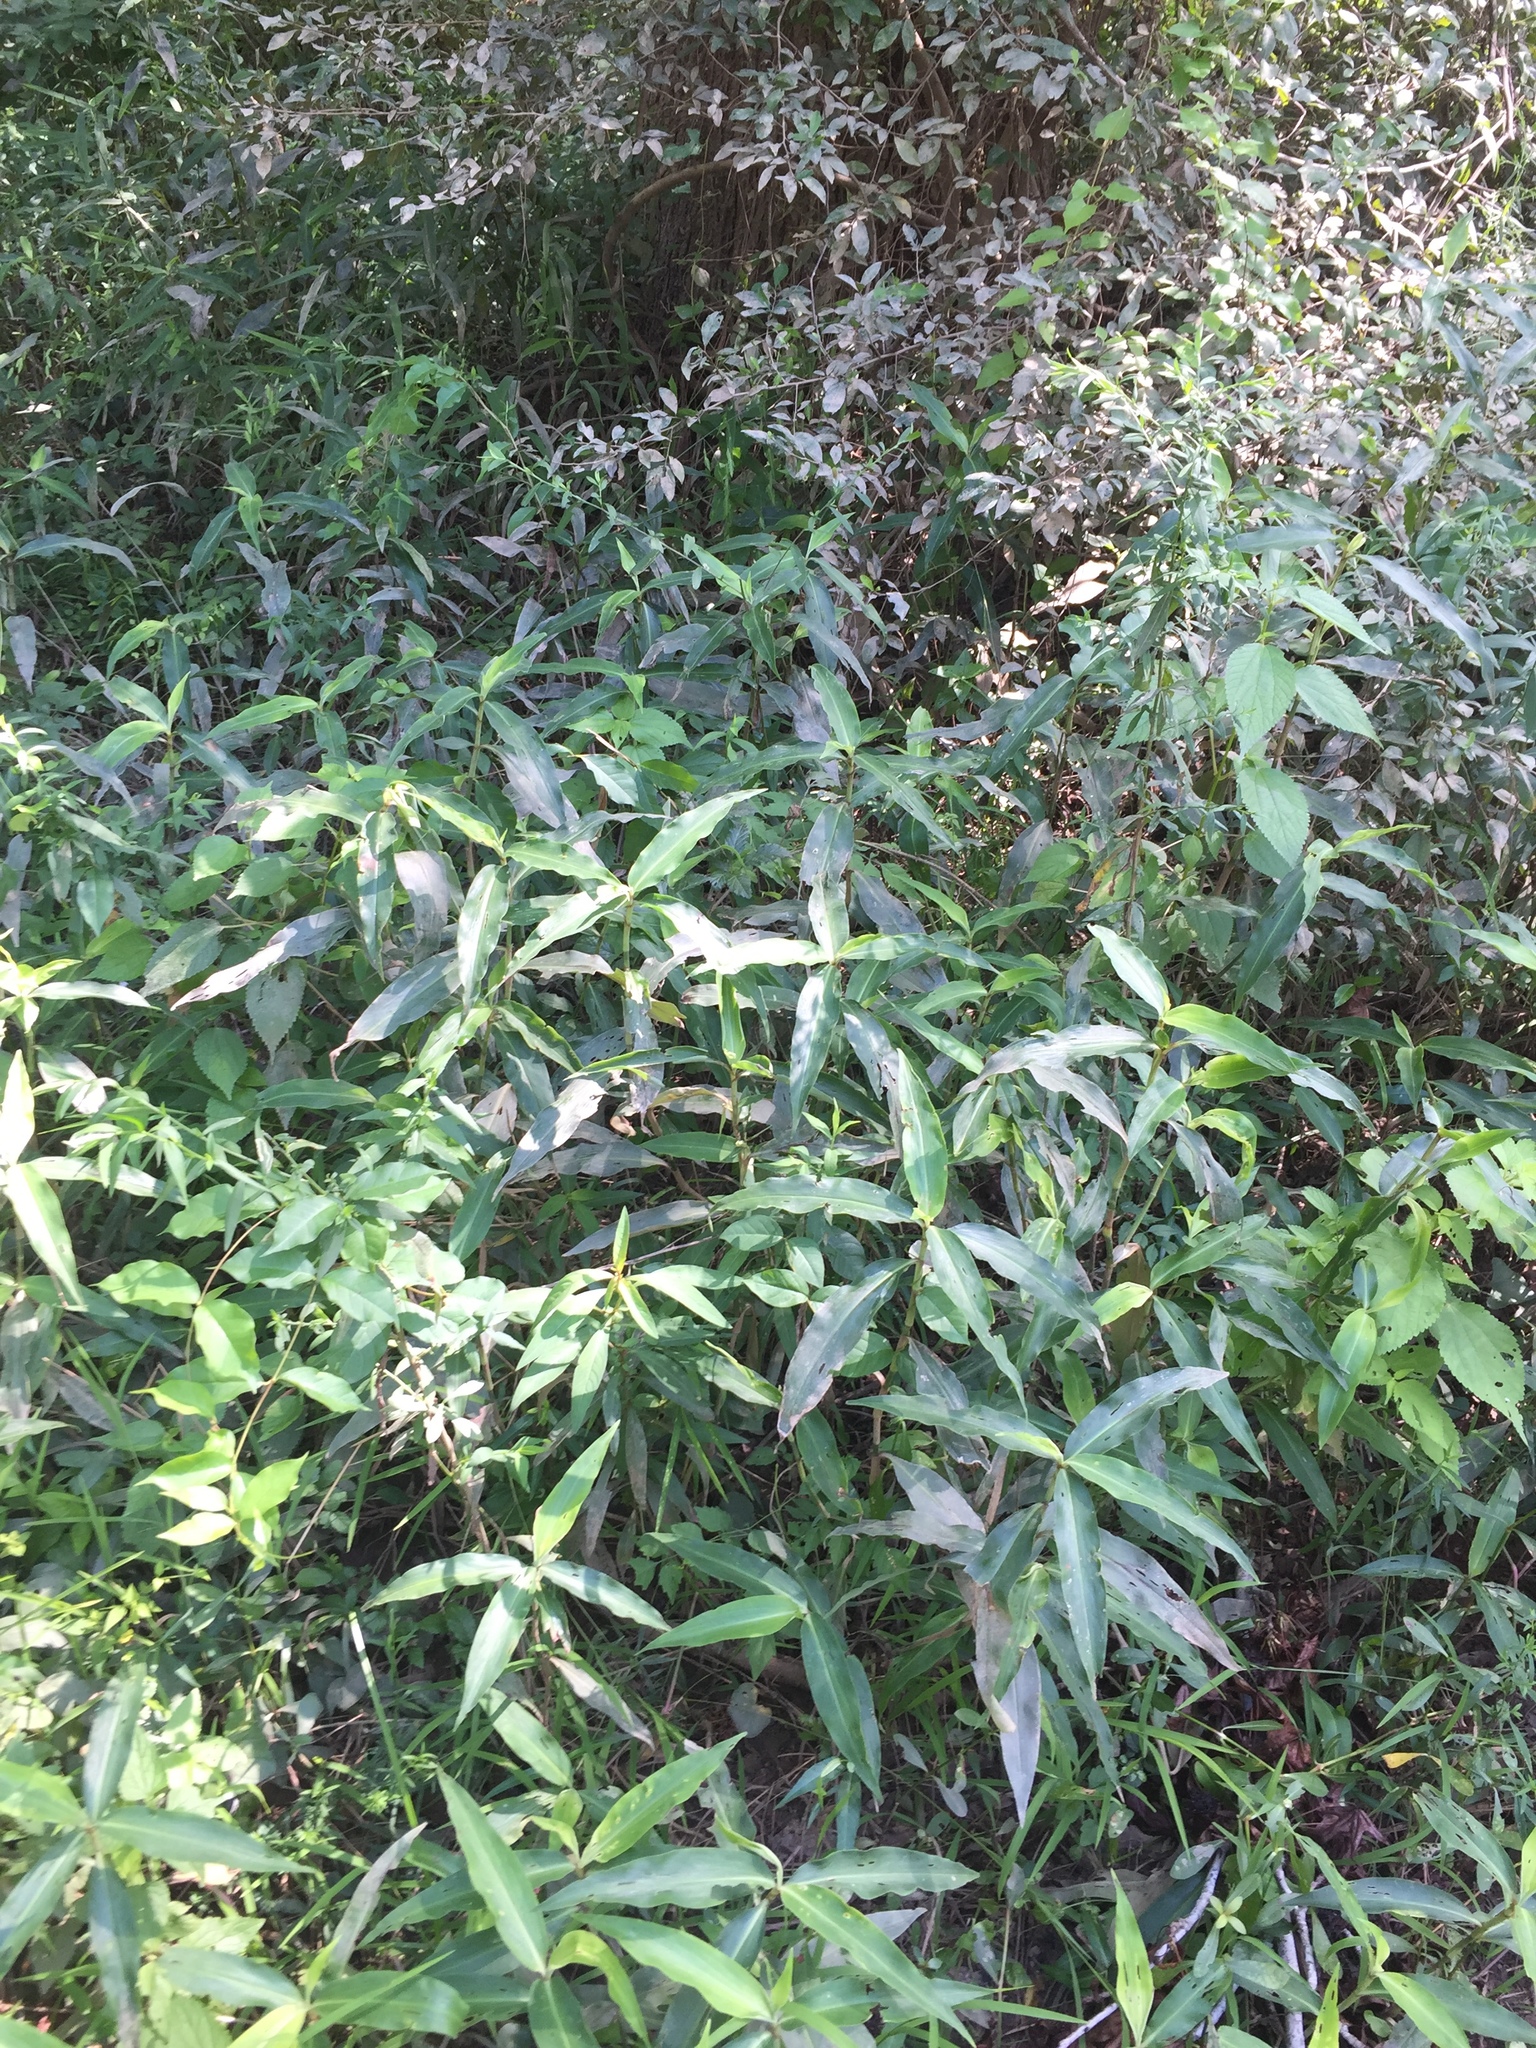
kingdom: Plantae
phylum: Tracheophyta
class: Liliopsida
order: Commelinales
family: Commelinaceae
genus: Commelina
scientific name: Commelina virginica
